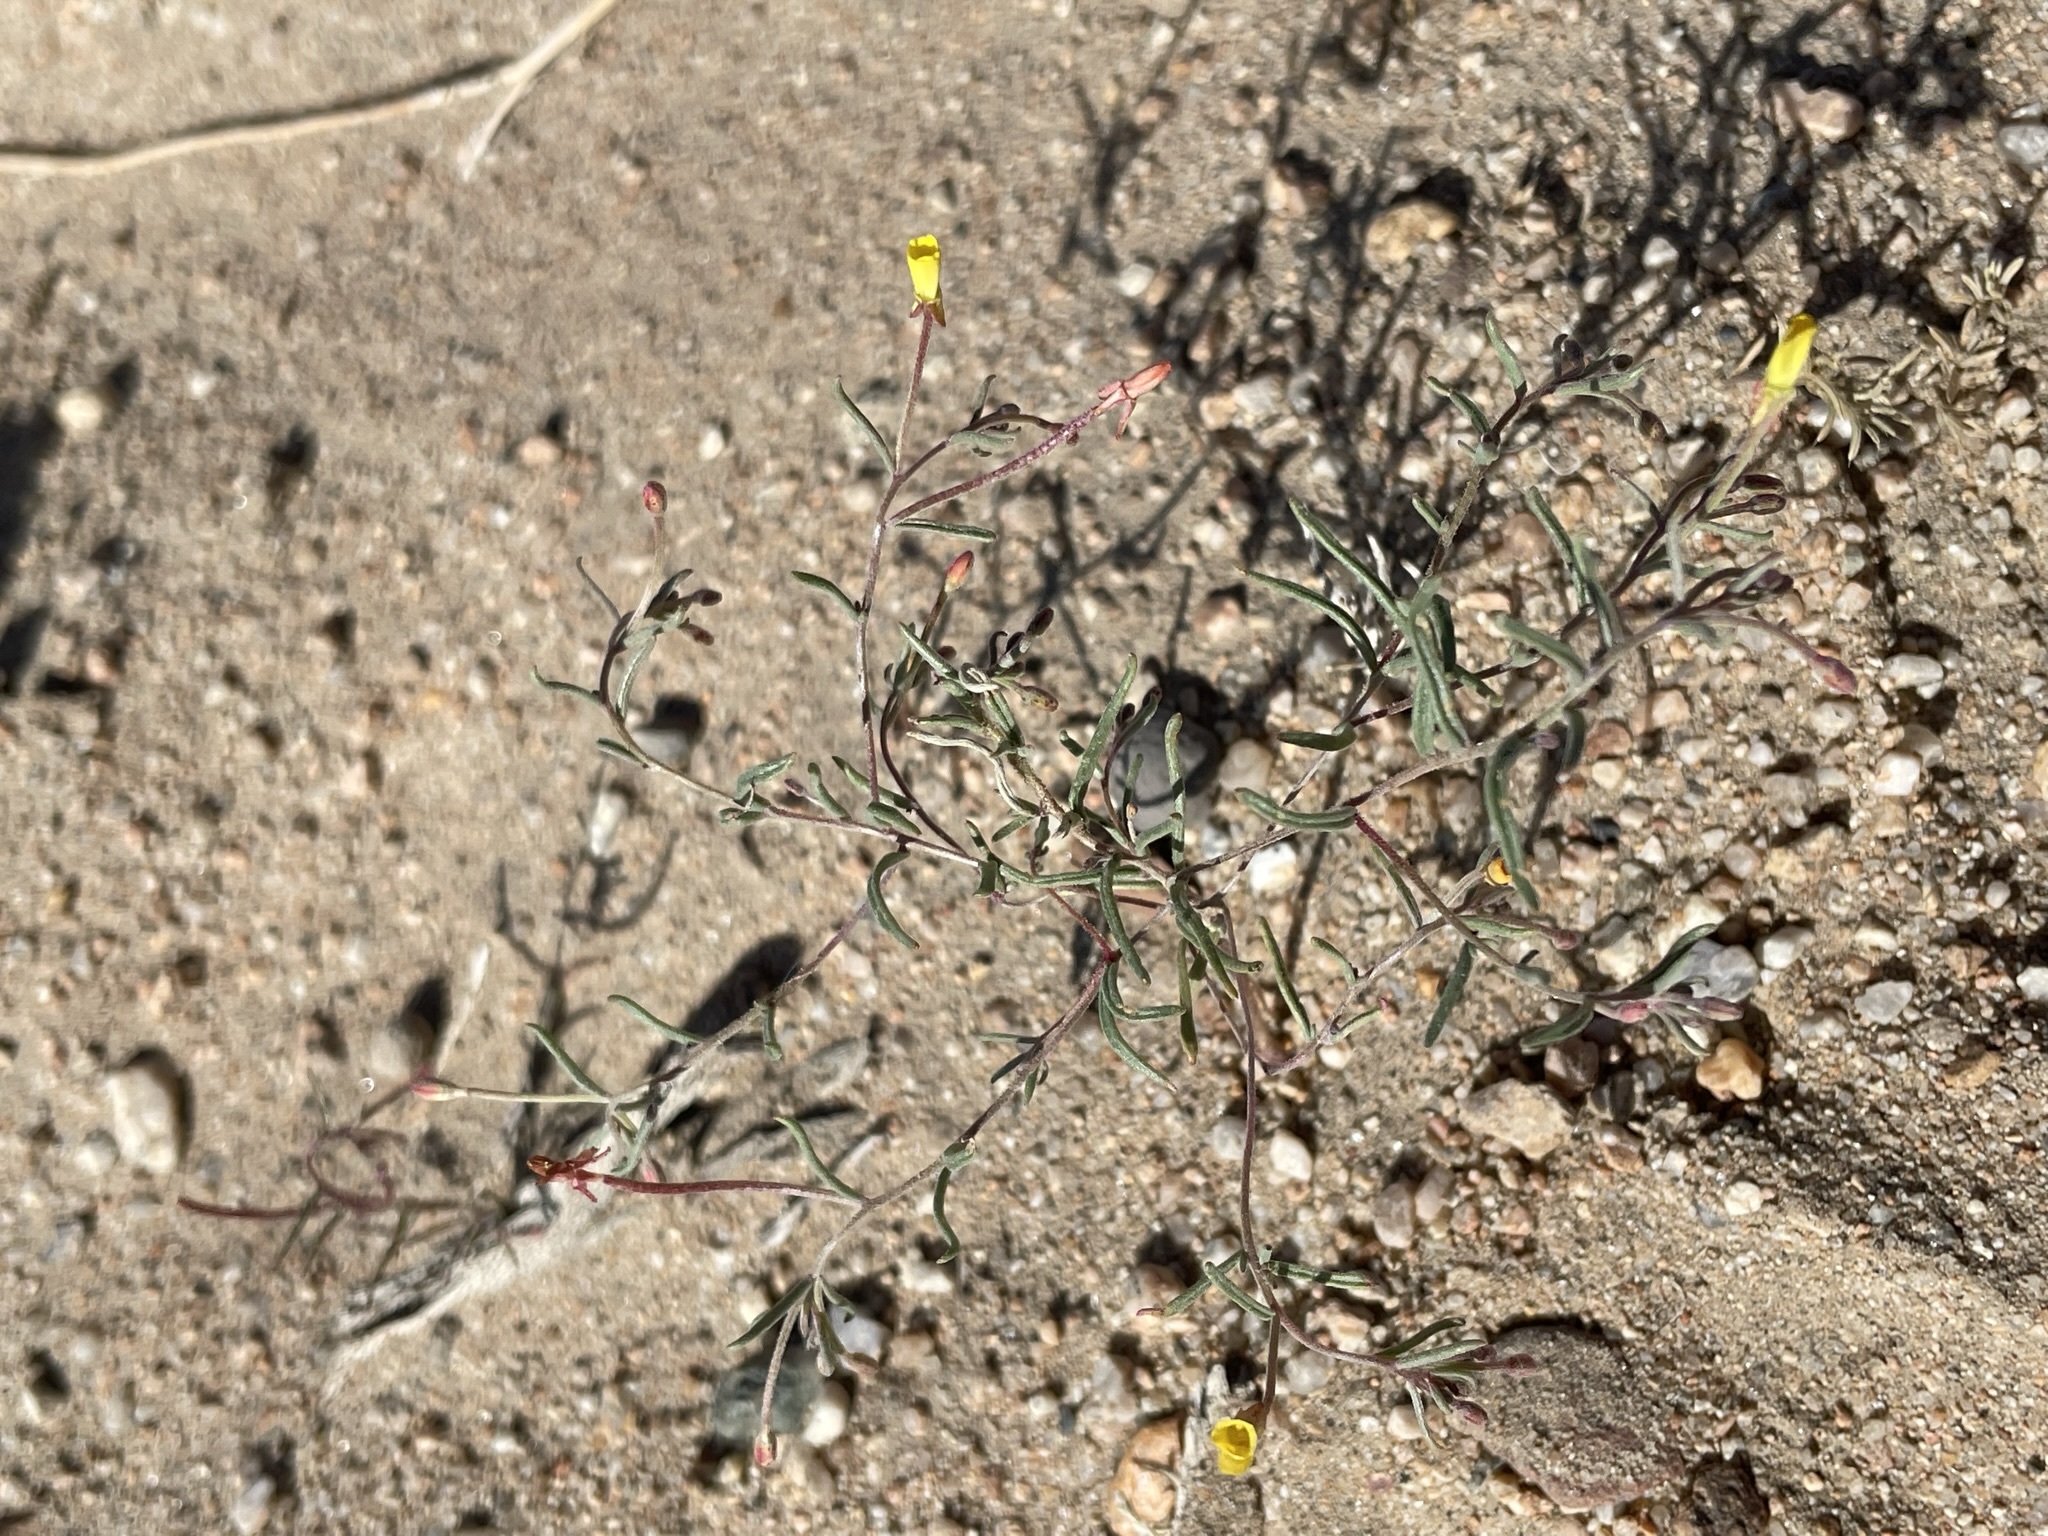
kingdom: Plantae
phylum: Tracheophyta
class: Magnoliopsida
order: Myrtales
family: Onagraceae
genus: Camissonia
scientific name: Camissonia parvula
